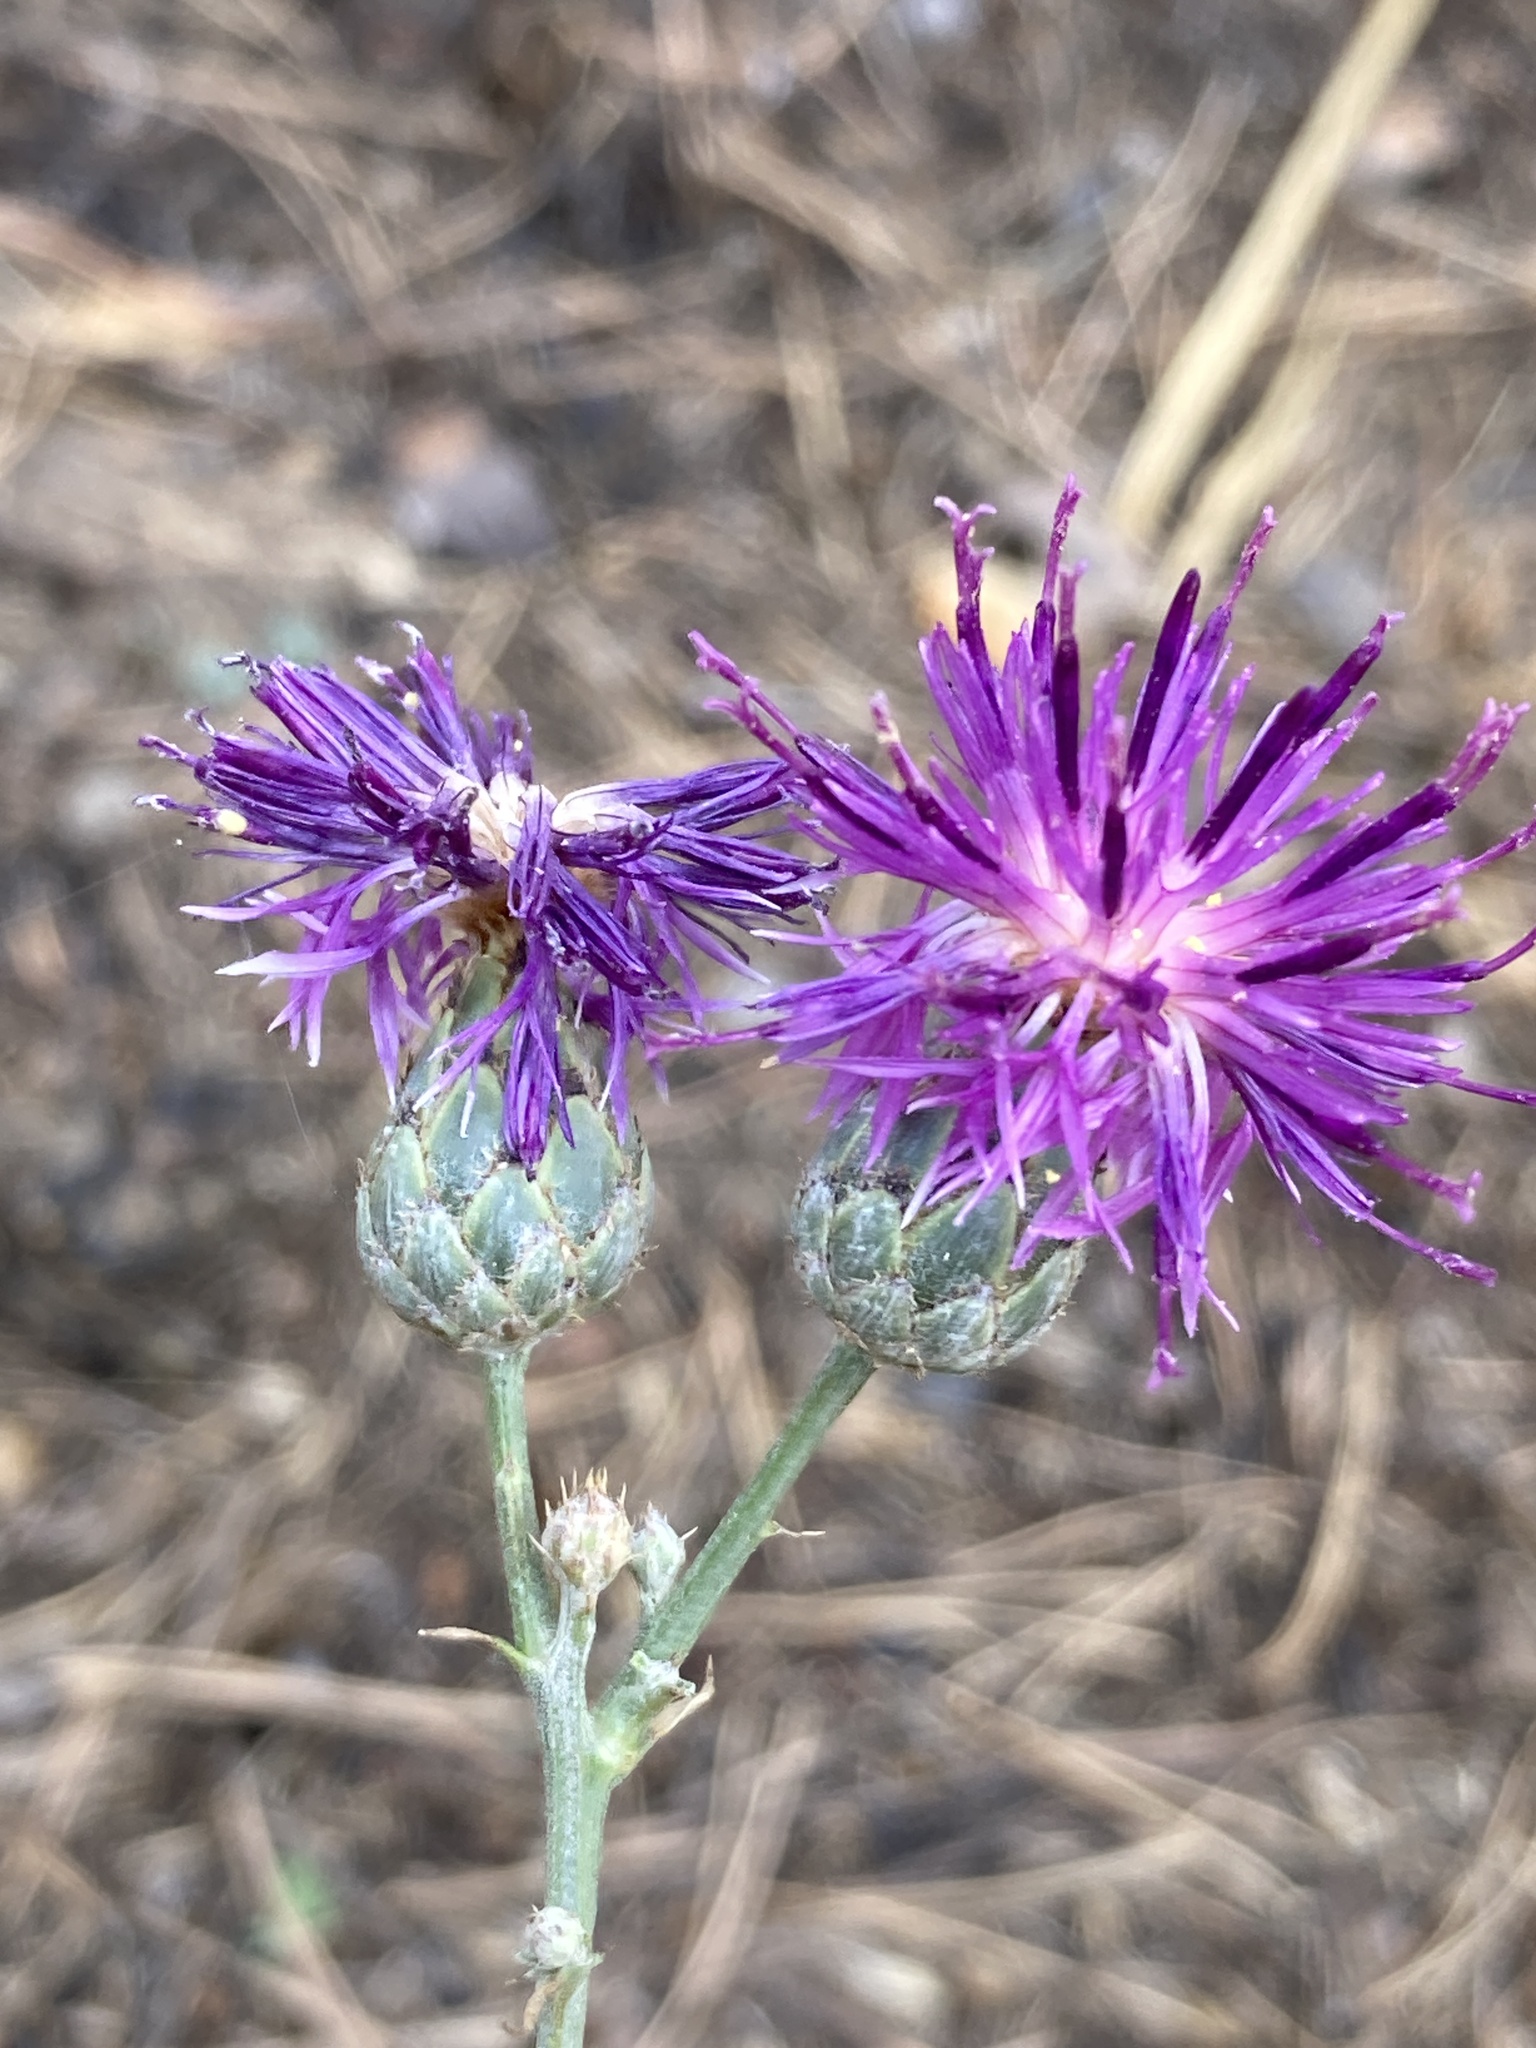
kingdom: Plantae
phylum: Tracheophyta
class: Magnoliopsida
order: Asterales
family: Asteraceae
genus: Centaurea
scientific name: Centaurea scabiosa
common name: Greater knapweed
